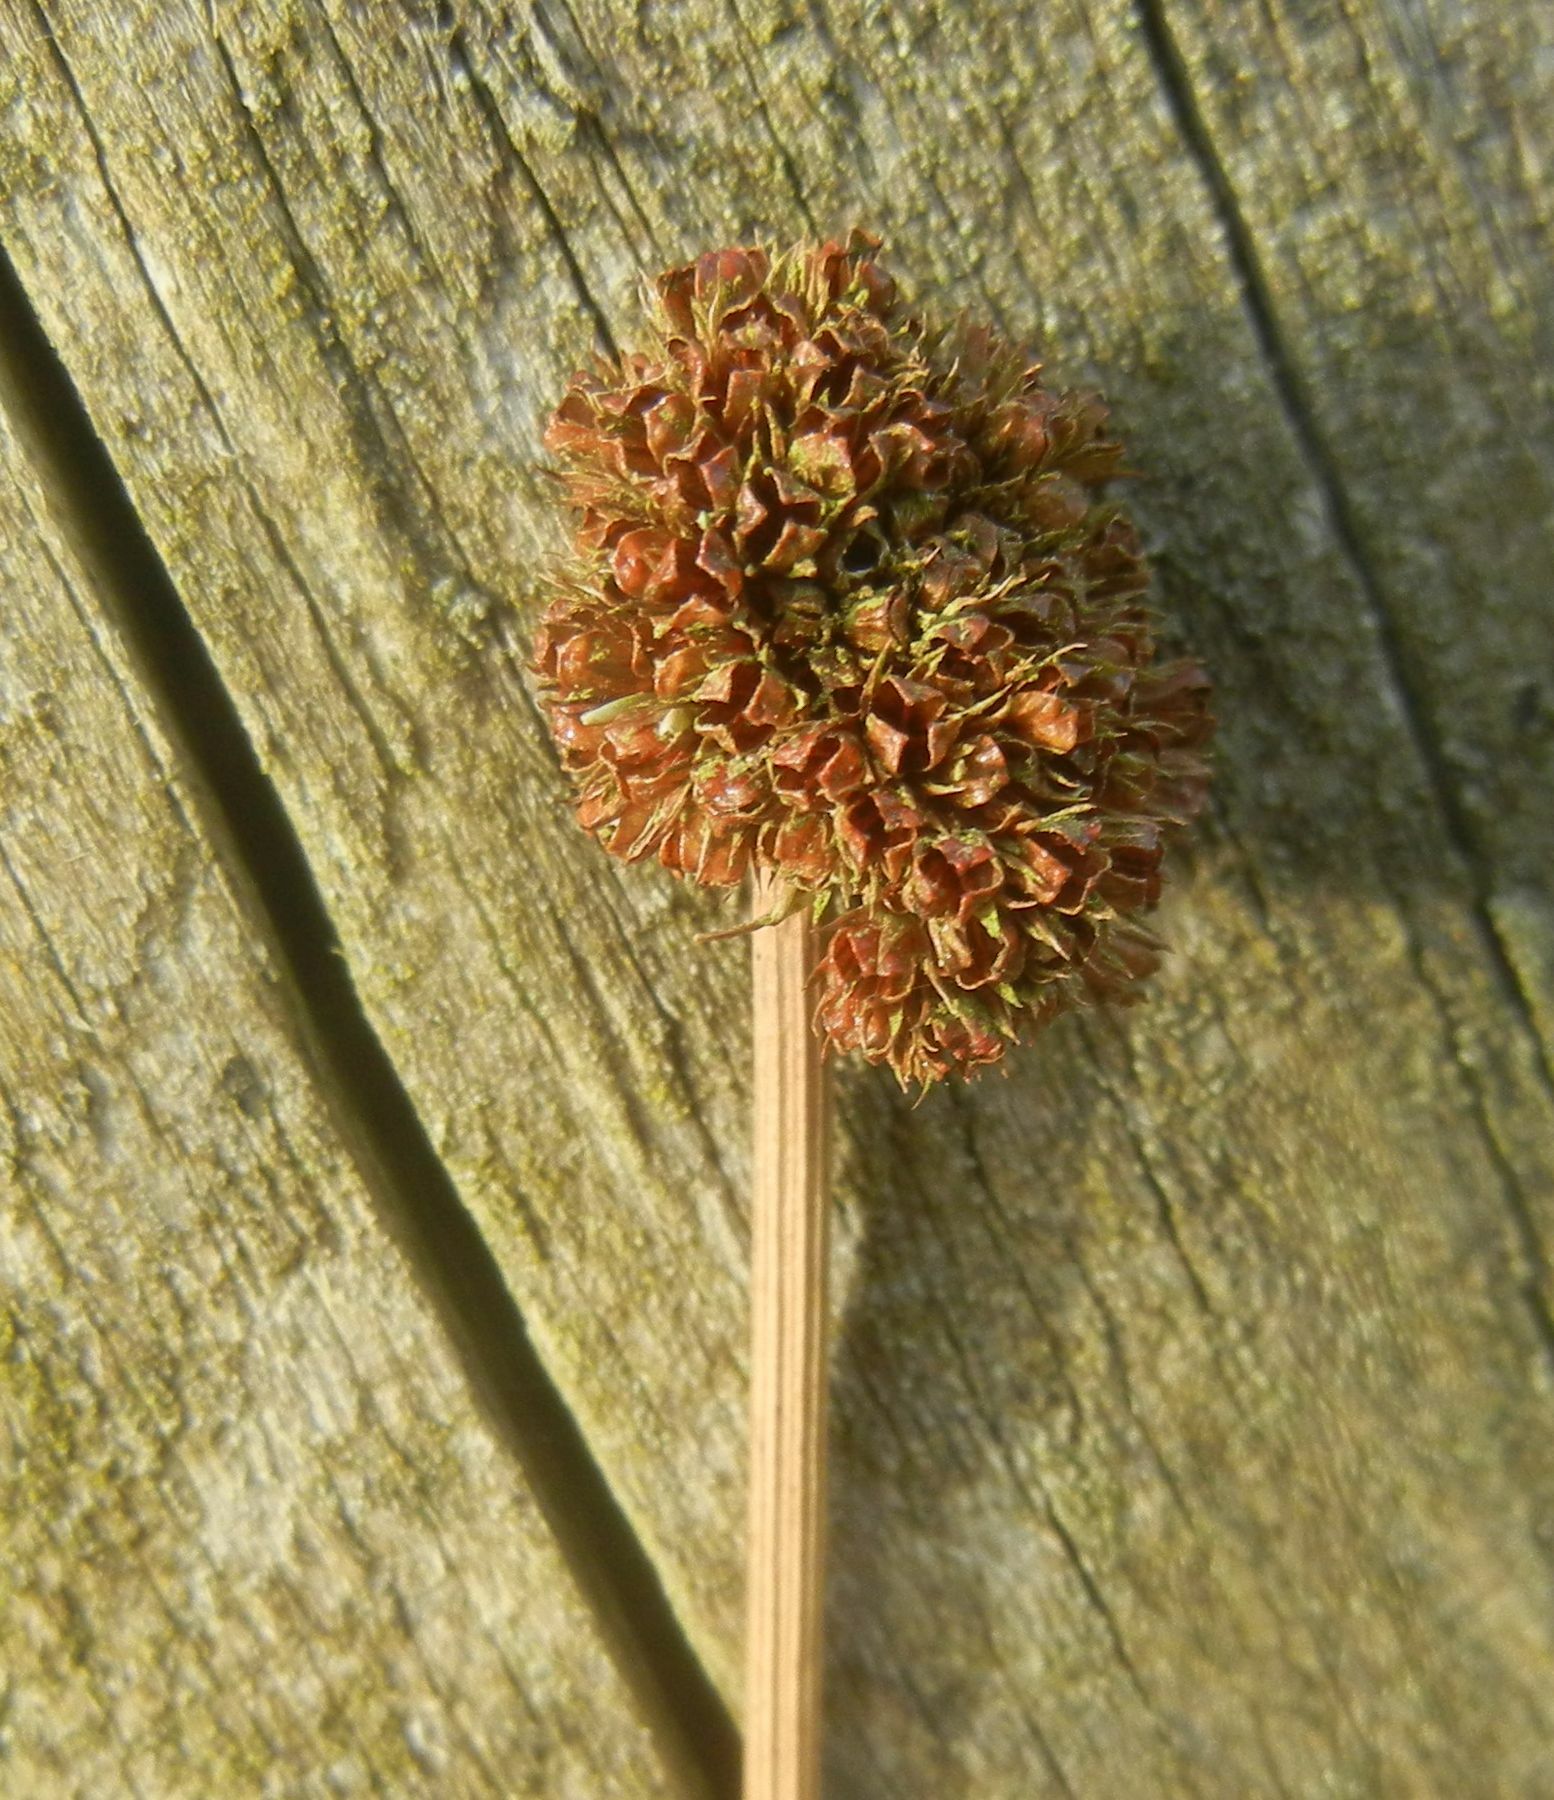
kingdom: Plantae
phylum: Tracheophyta
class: Liliopsida
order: Poales
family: Juncaceae
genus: Juncus
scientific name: Juncus conglomeratus
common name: Compact rush
